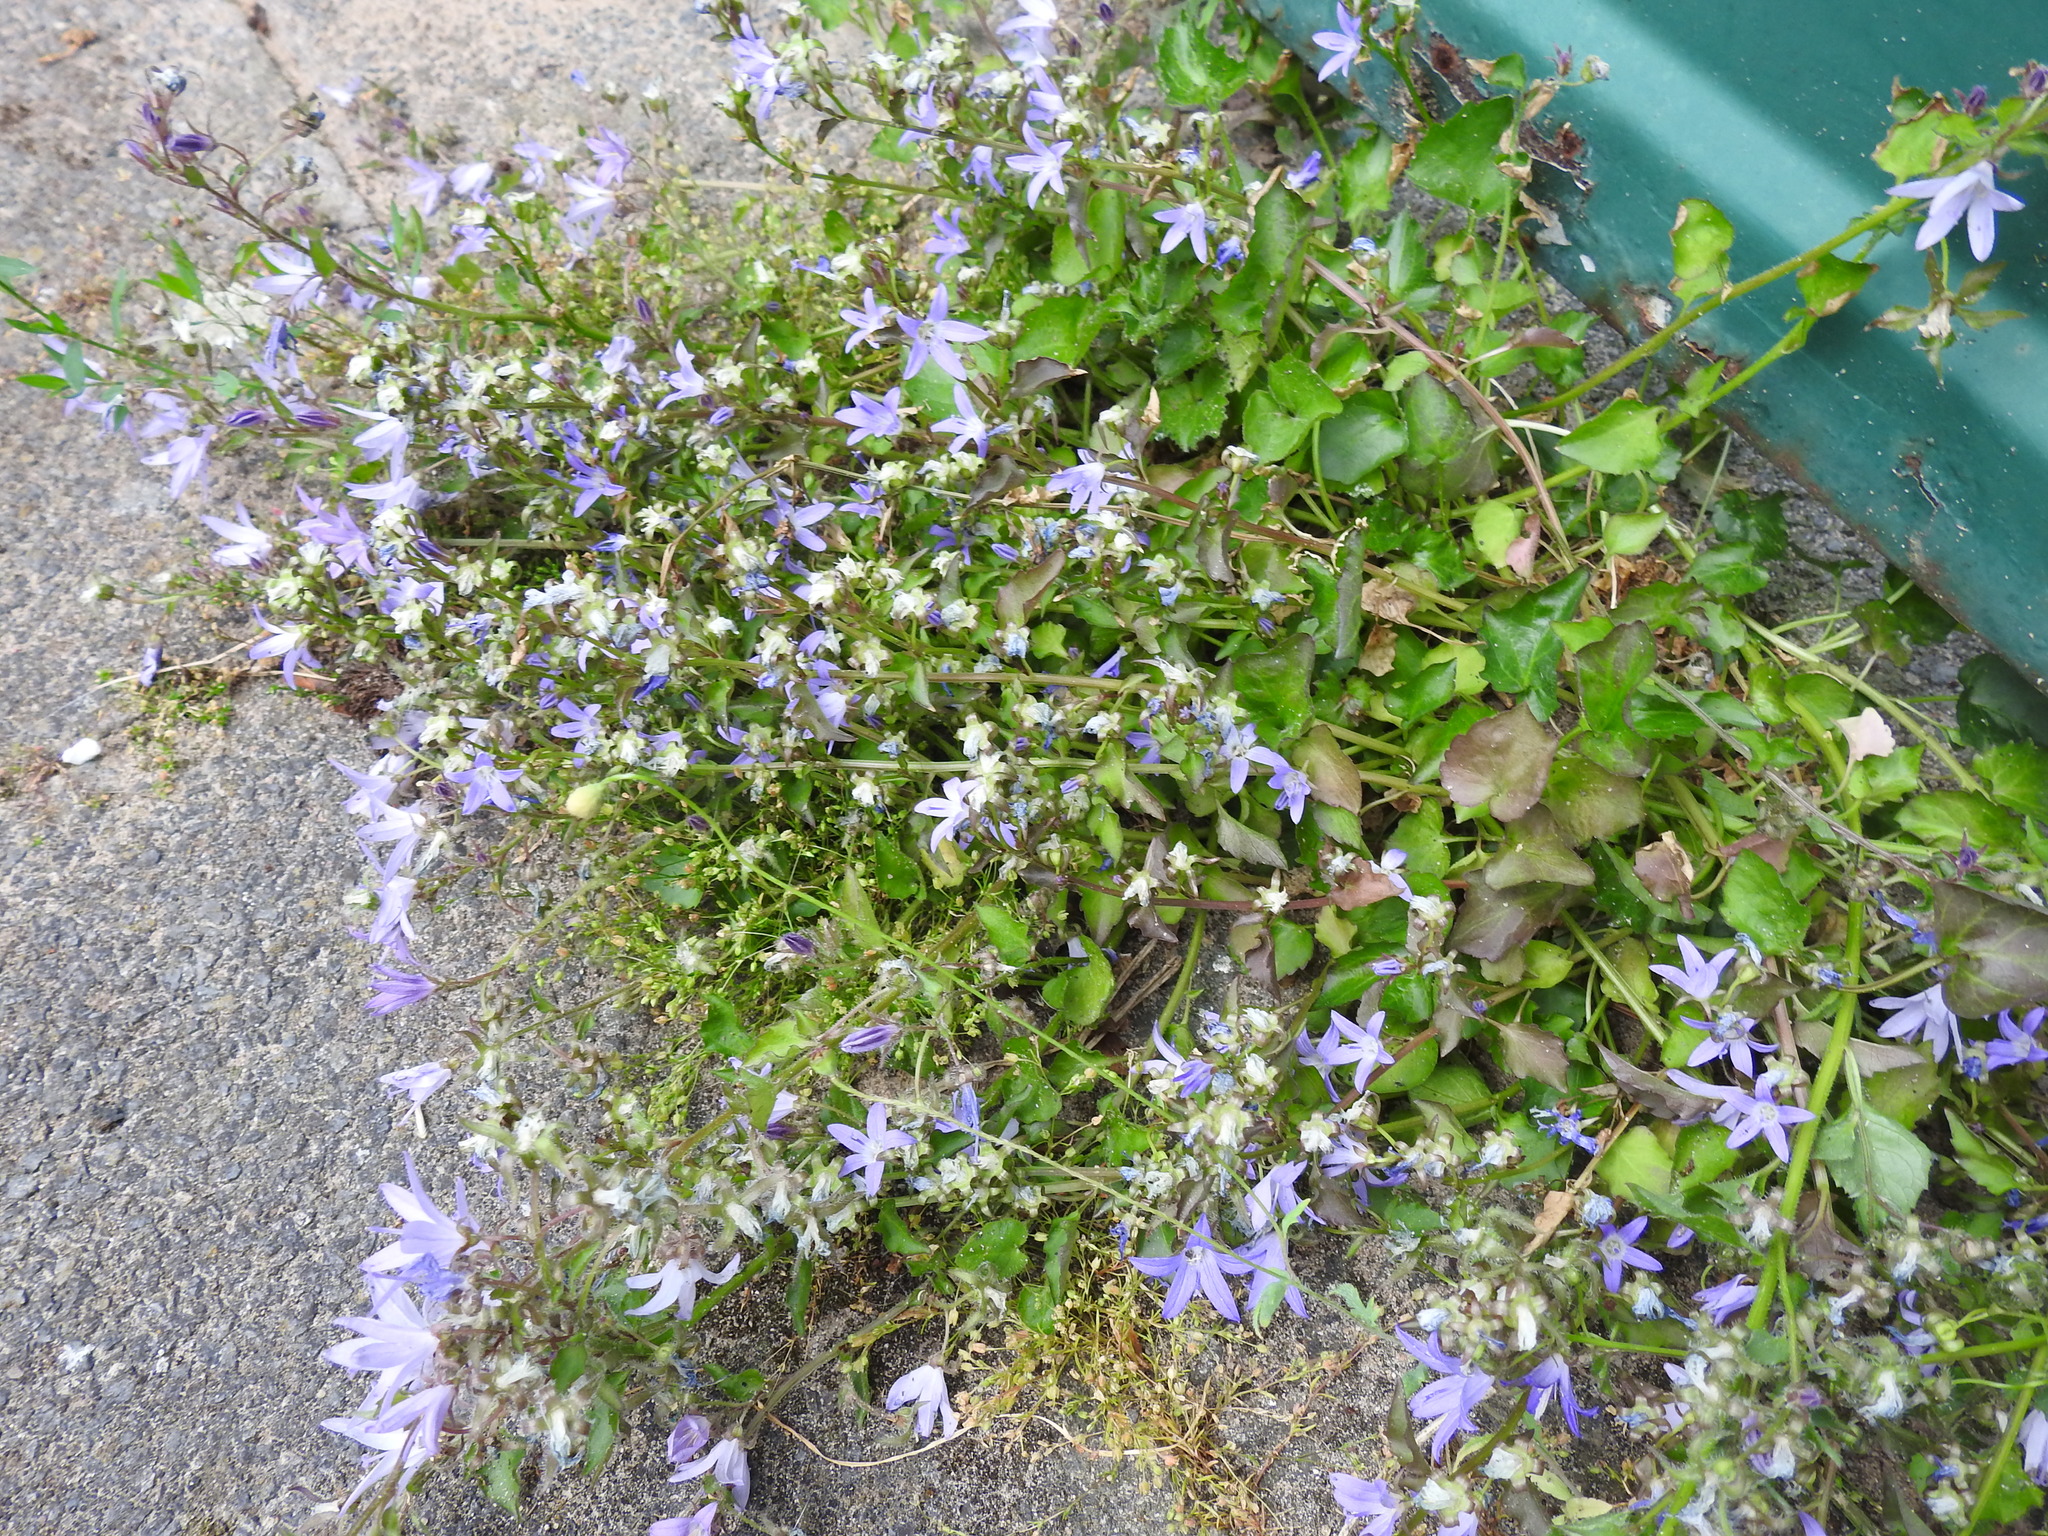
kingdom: Plantae
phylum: Tracheophyta
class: Magnoliopsida
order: Asterales
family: Campanulaceae
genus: Campanula
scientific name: Campanula poscharskyana
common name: Trailing bellflower
